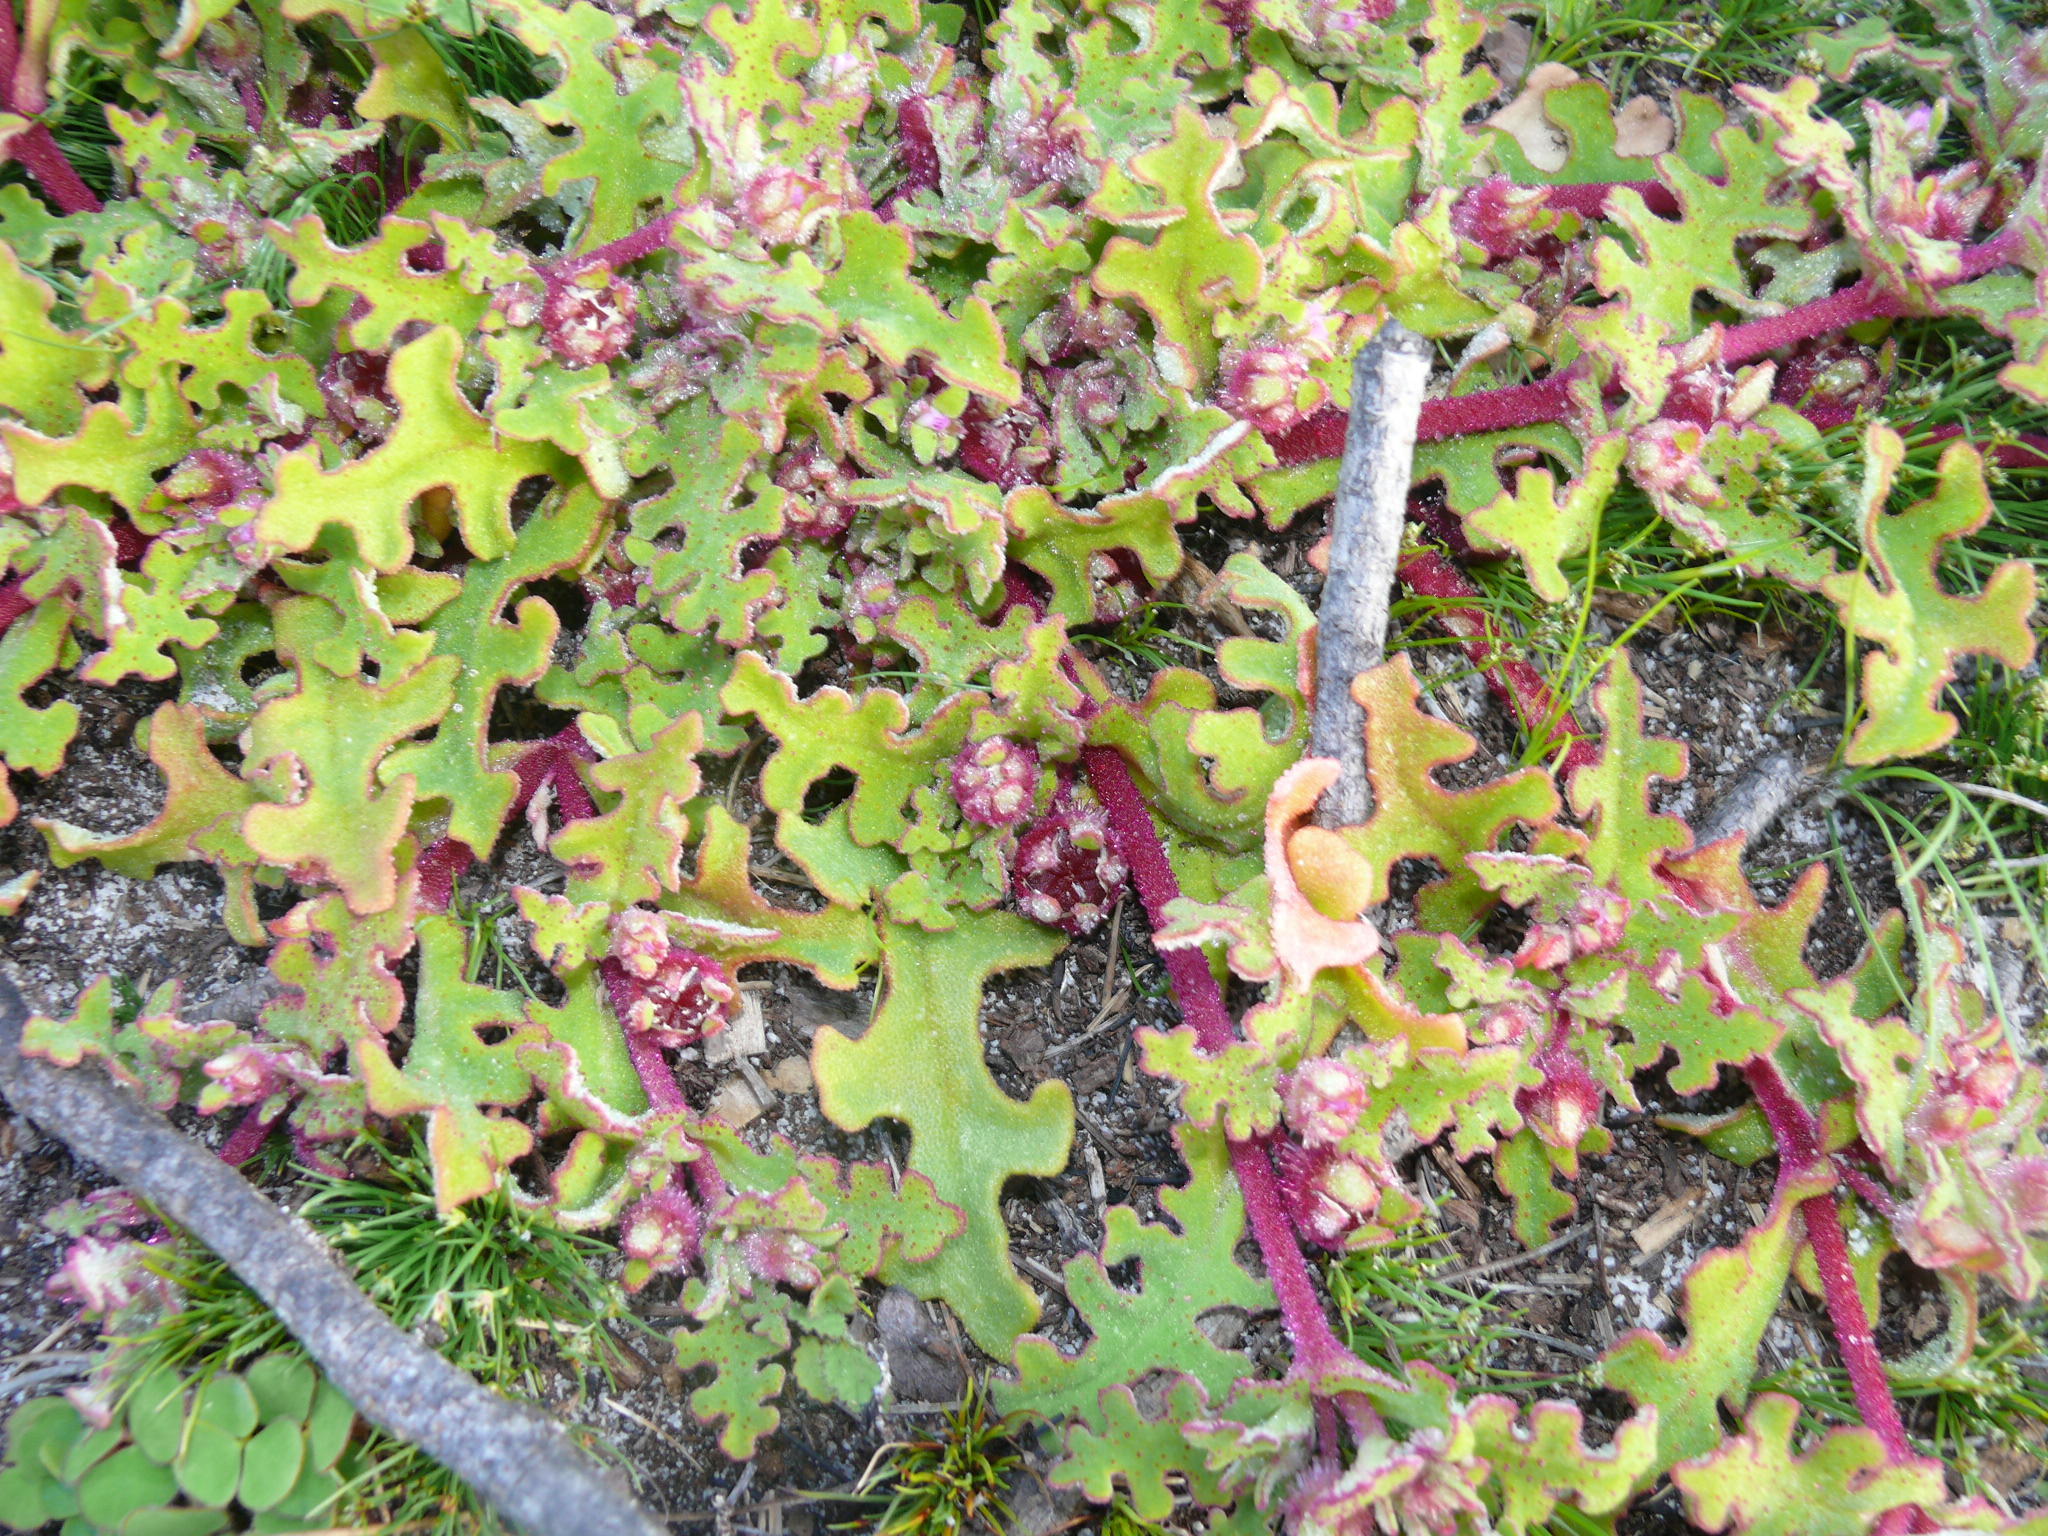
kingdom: Plantae
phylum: Tracheophyta
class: Magnoliopsida
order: Caryophyllales
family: Aizoaceae
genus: Cleretum
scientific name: Cleretum herrei
